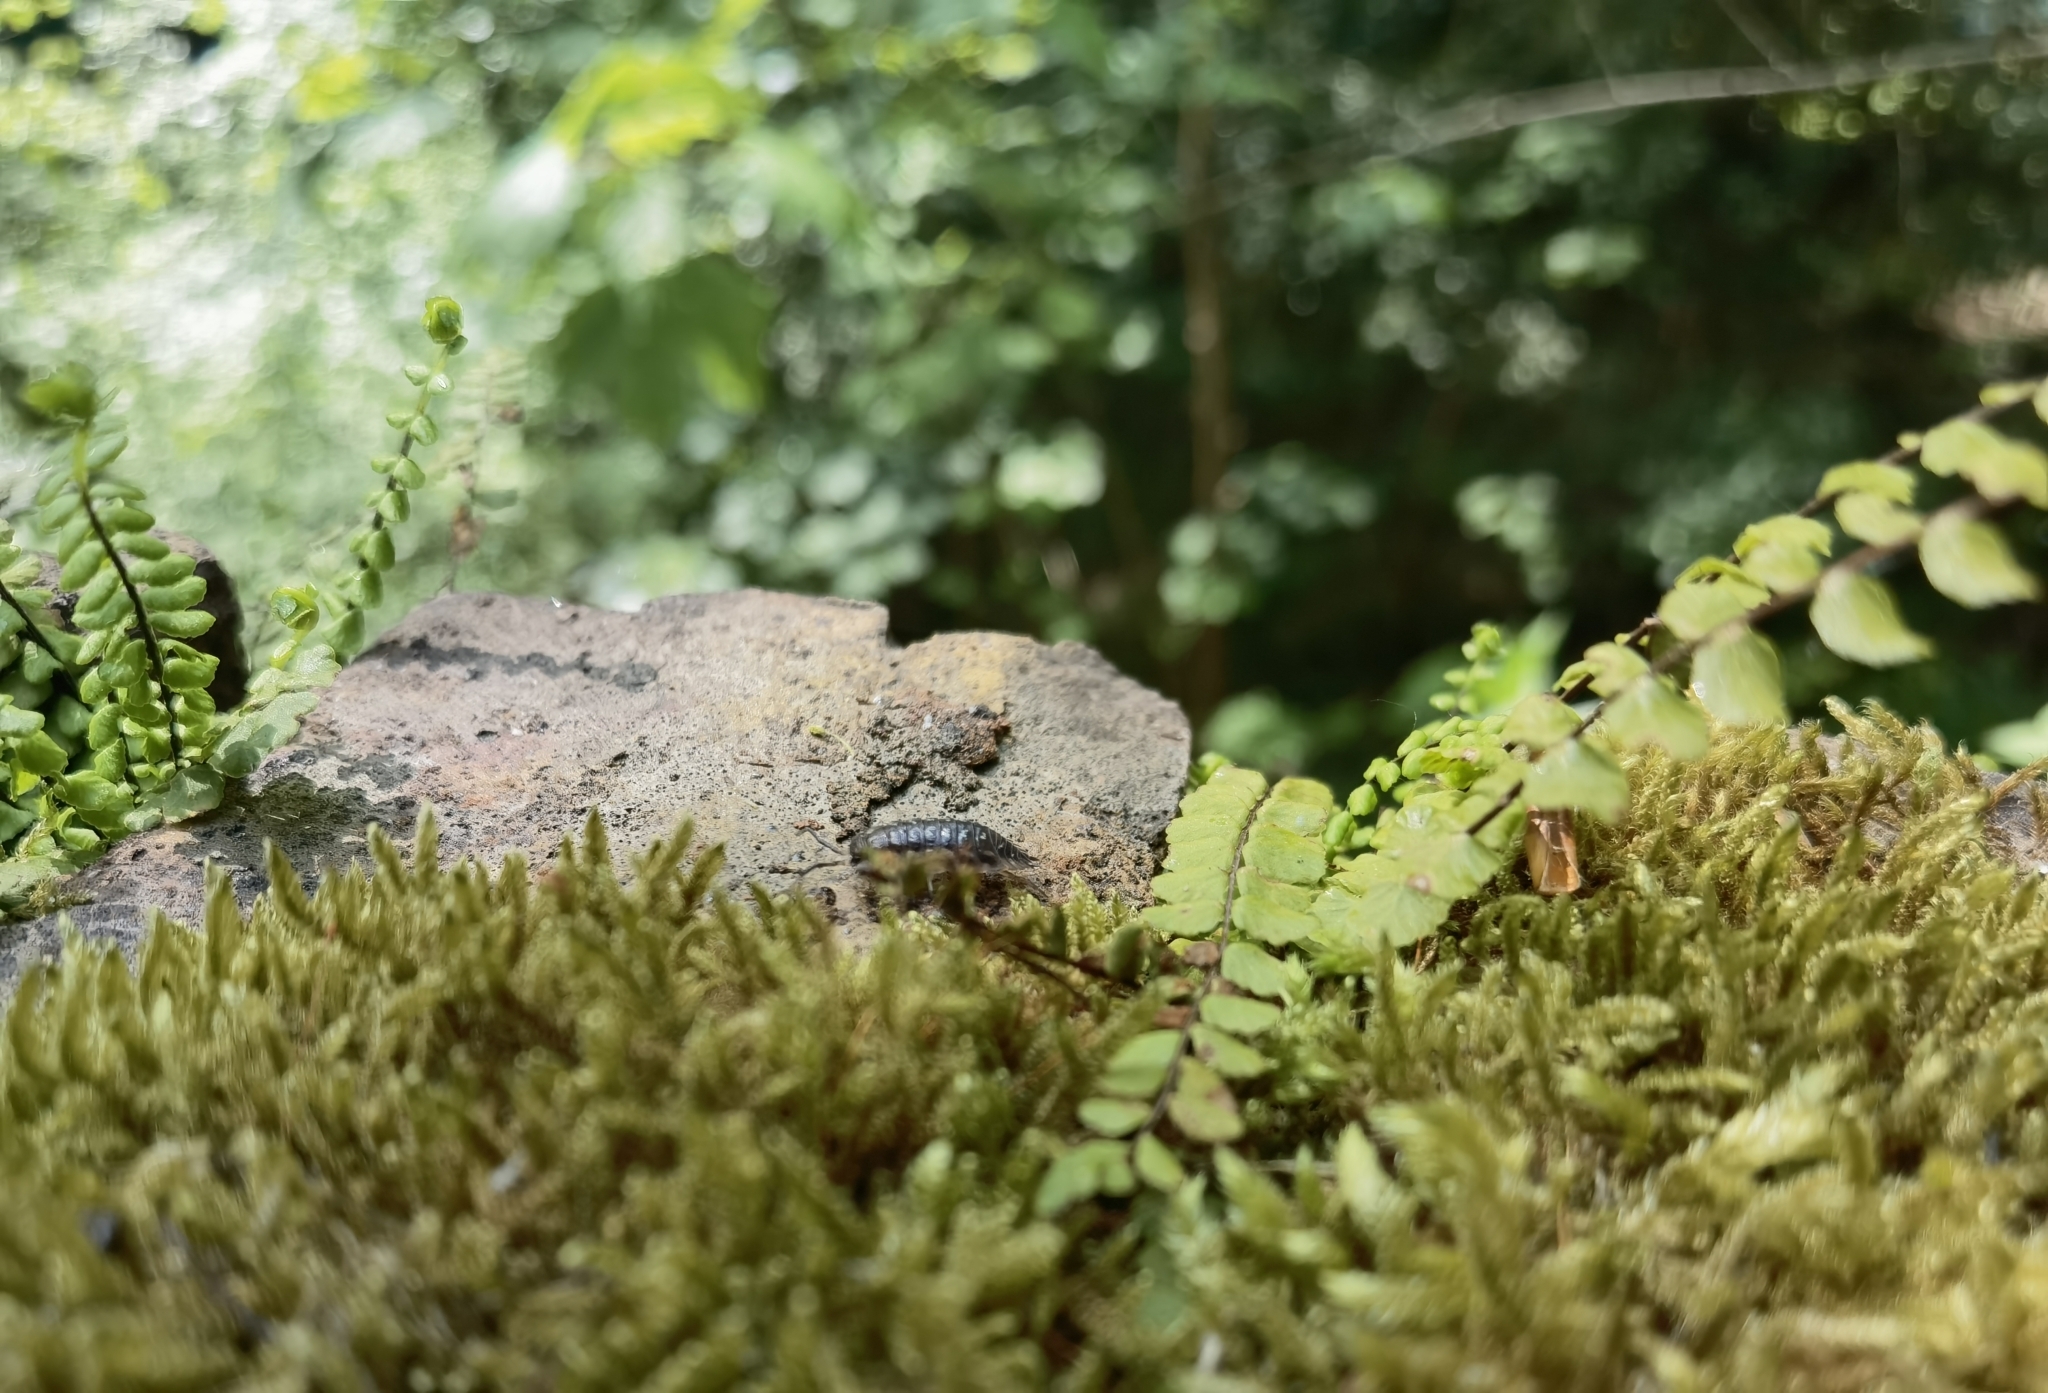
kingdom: Animalia
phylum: Arthropoda
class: Malacostraca
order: Isopoda
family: Oniscidae
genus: Oniscus
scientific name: Oniscus asellus
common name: Common shiny woodlouse
